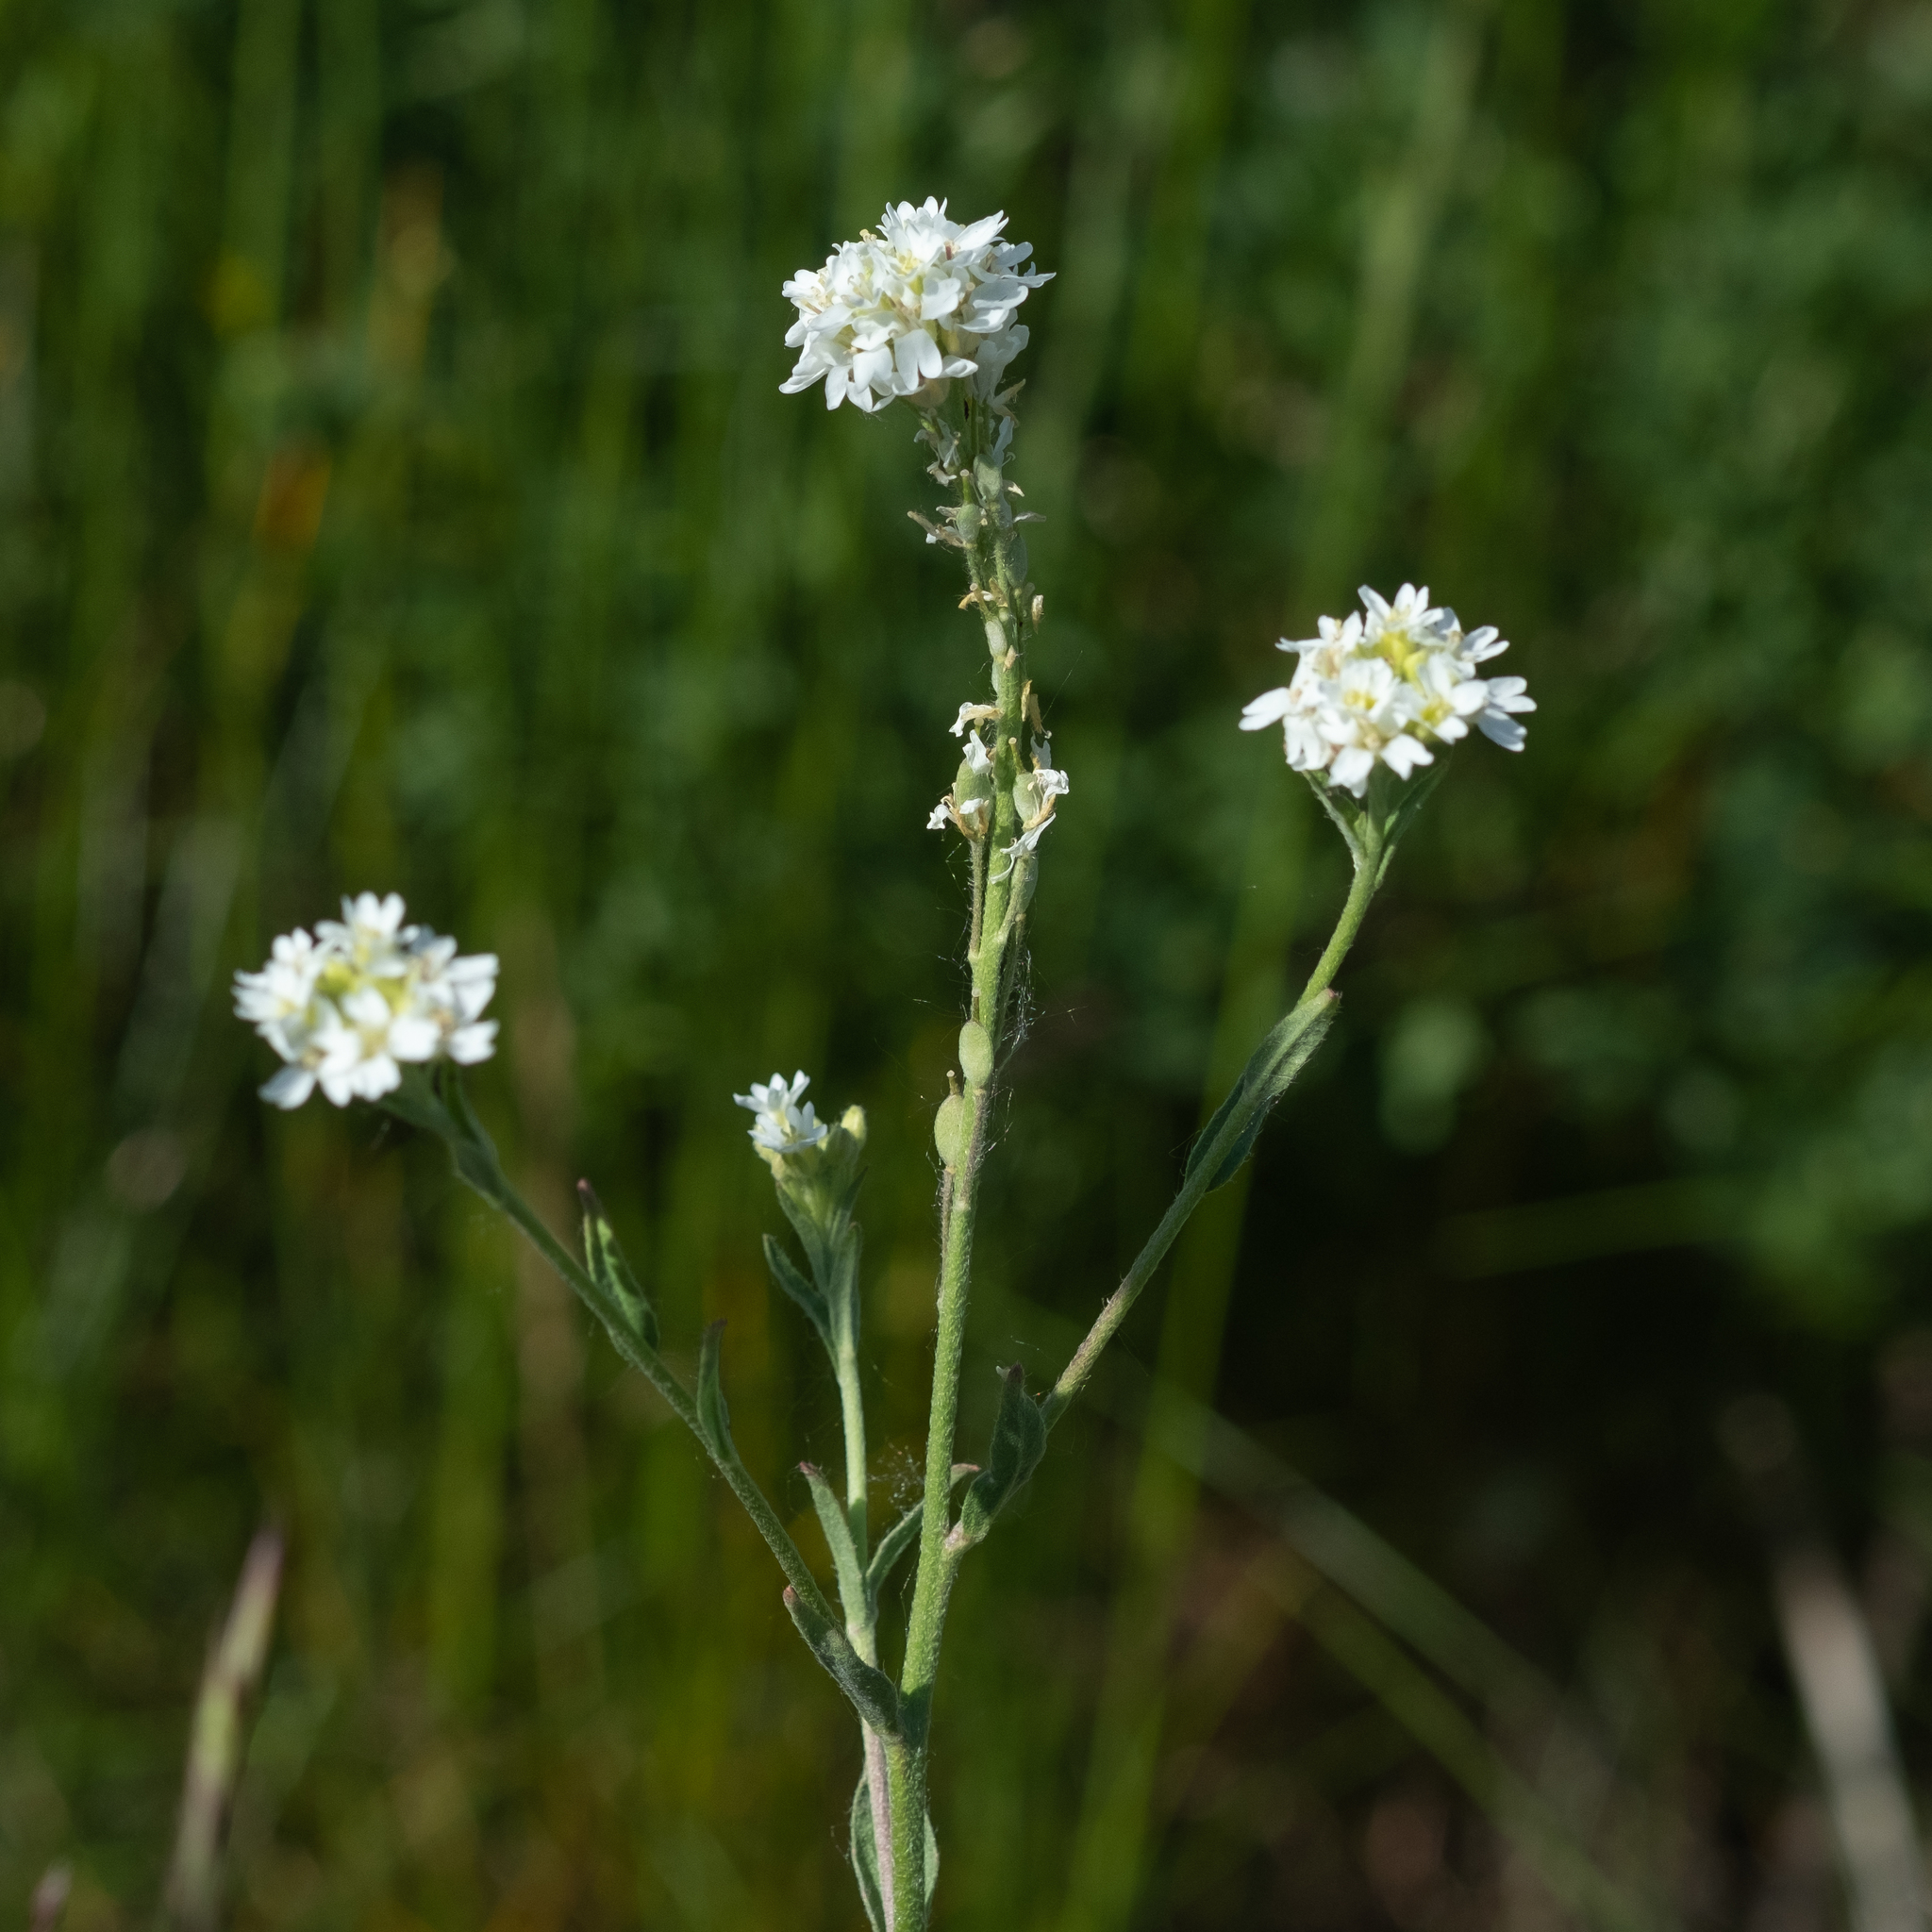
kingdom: Plantae
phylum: Tracheophyta
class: Magnoliopsida
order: Brassicales
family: Brassicaceae
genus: Berteroa
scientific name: Berteroa incana
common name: Hoary alison
